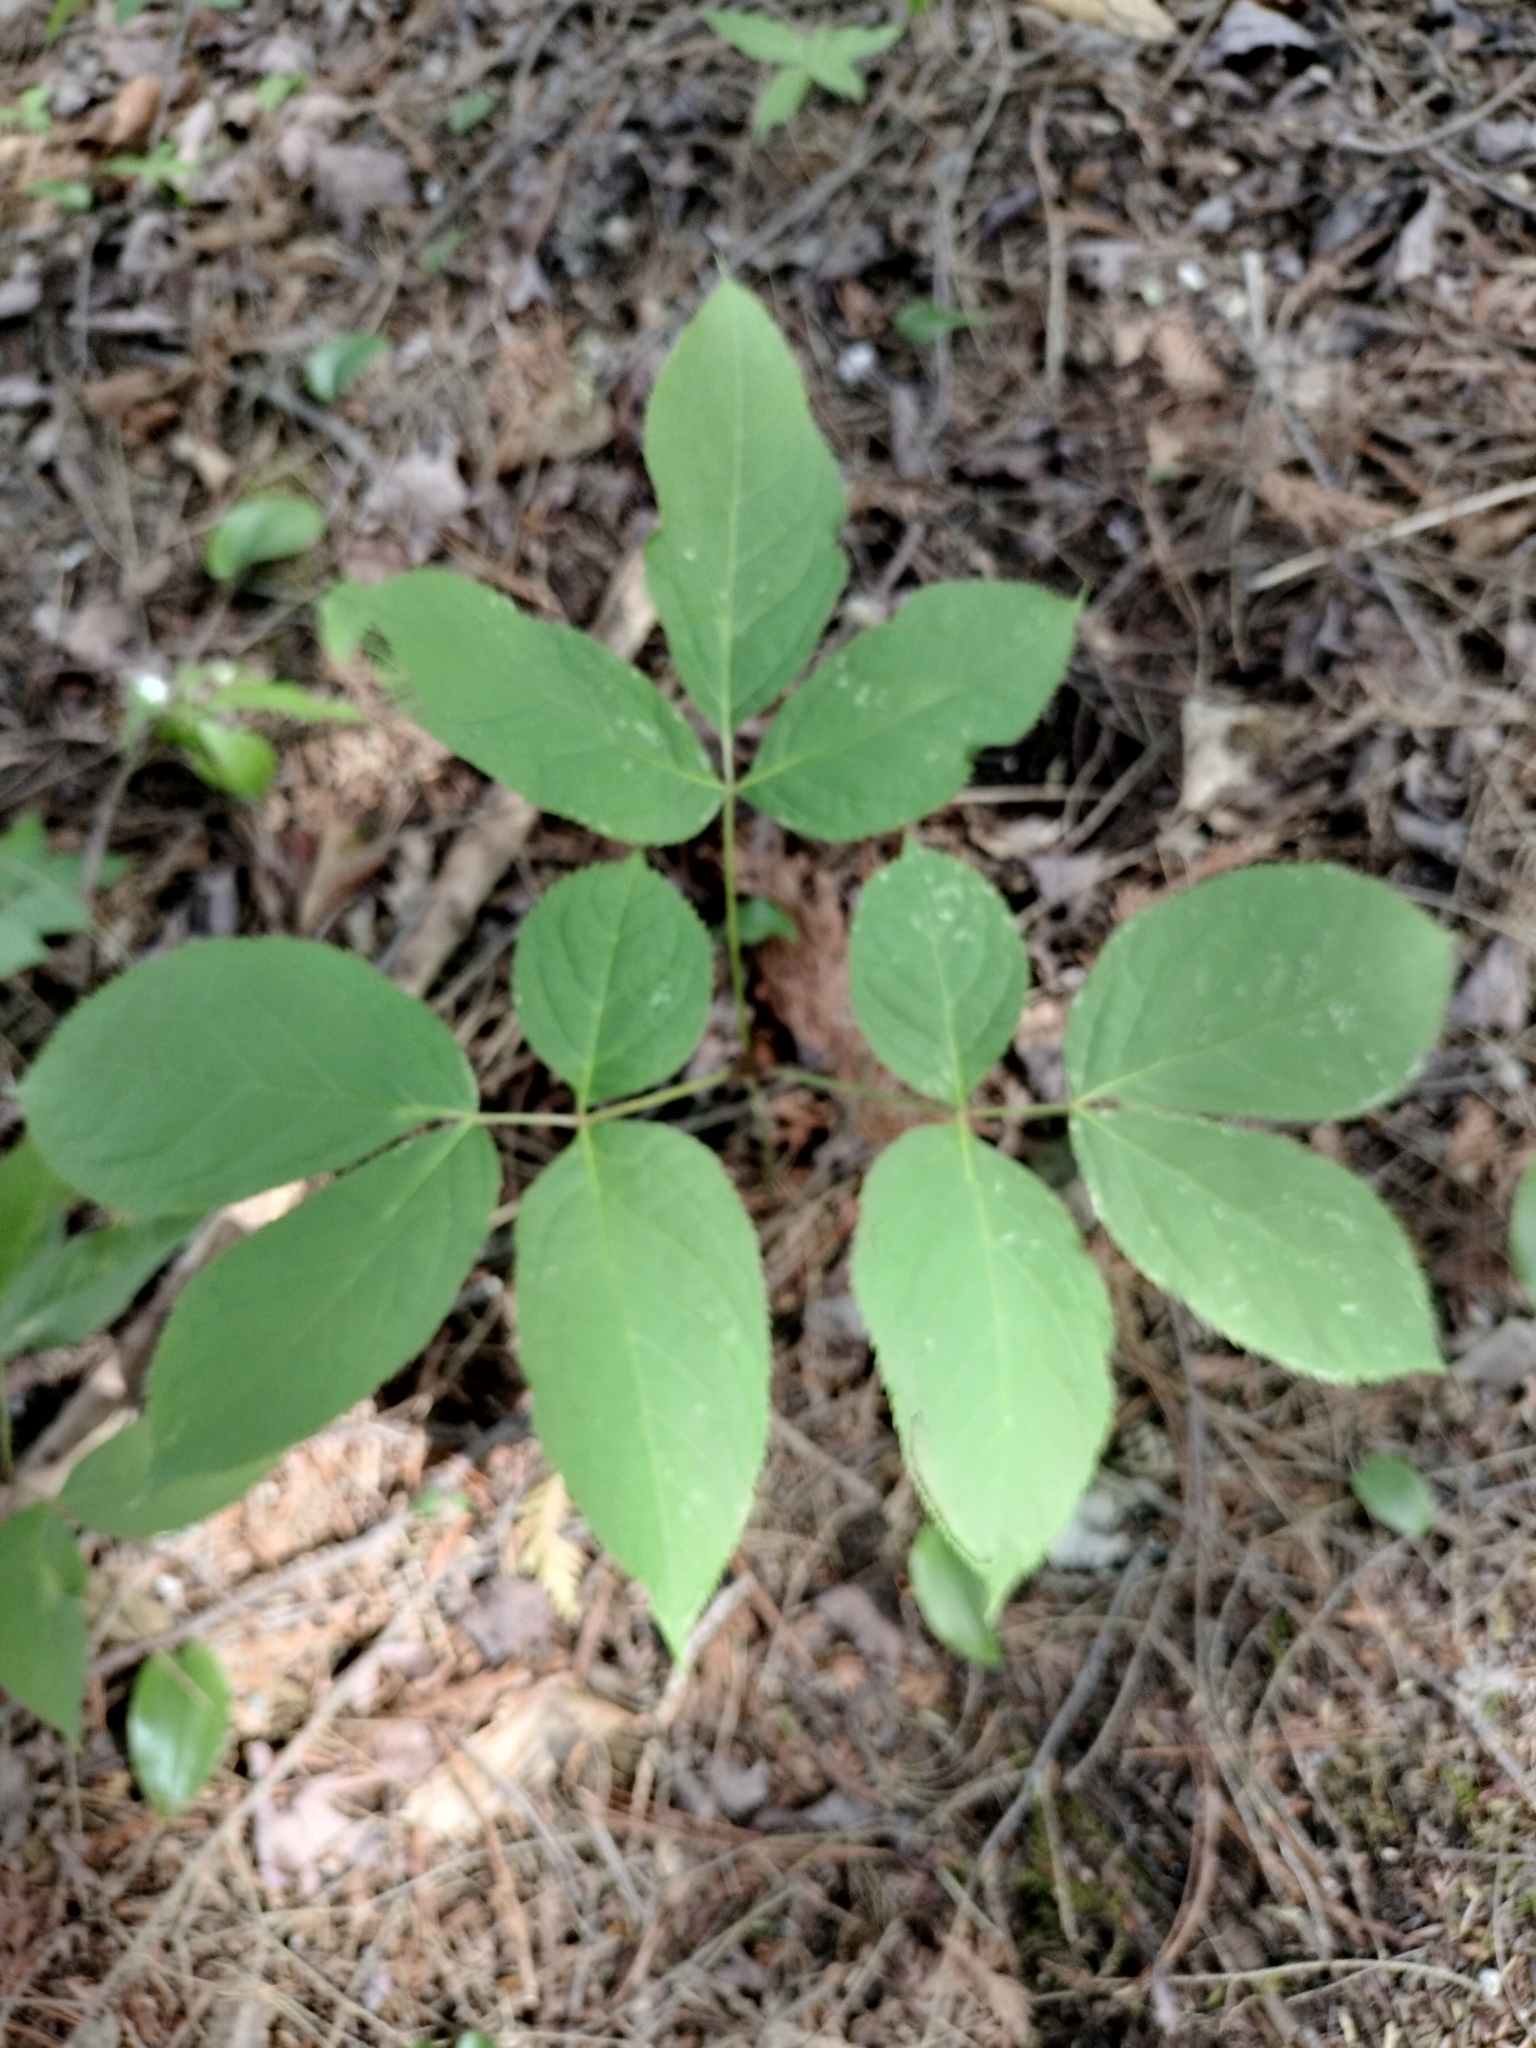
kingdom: Plantae
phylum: Tracheophyta
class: Magnoliopsida
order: Apiales
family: Araliaceae
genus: Aralia
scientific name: Aralia nudicaulis
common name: Wild sarsaparilla
